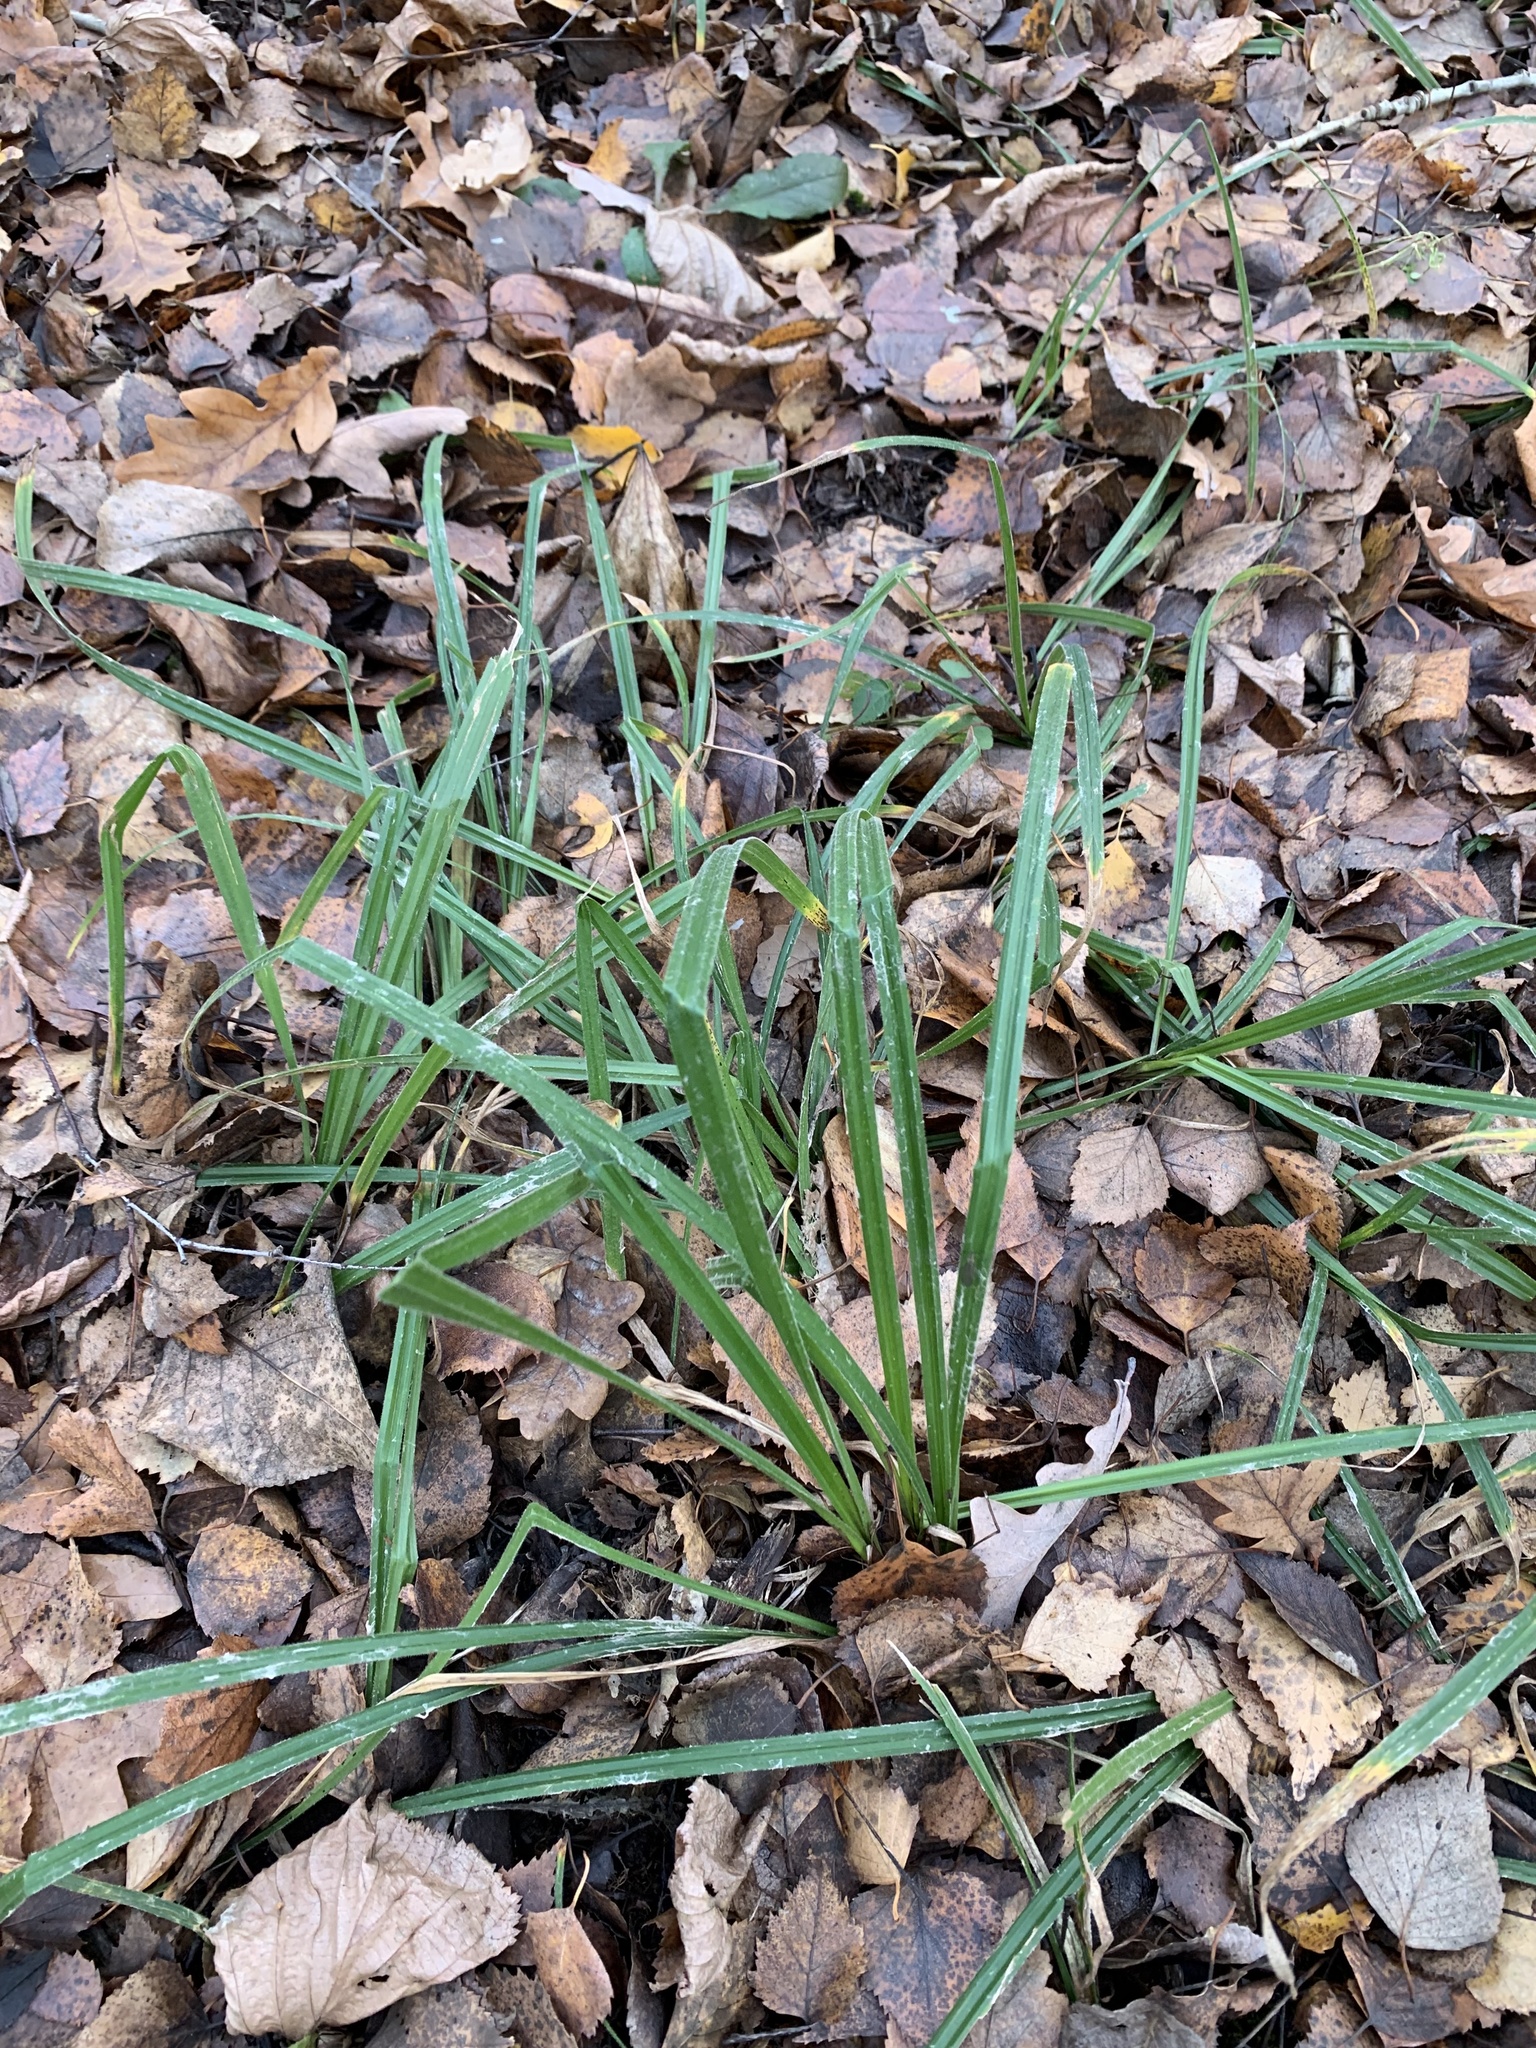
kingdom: Plantae
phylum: Tracheophyta
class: Liliopsida
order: Poales
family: Cyperaceae
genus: Carex
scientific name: Carex pilosa
